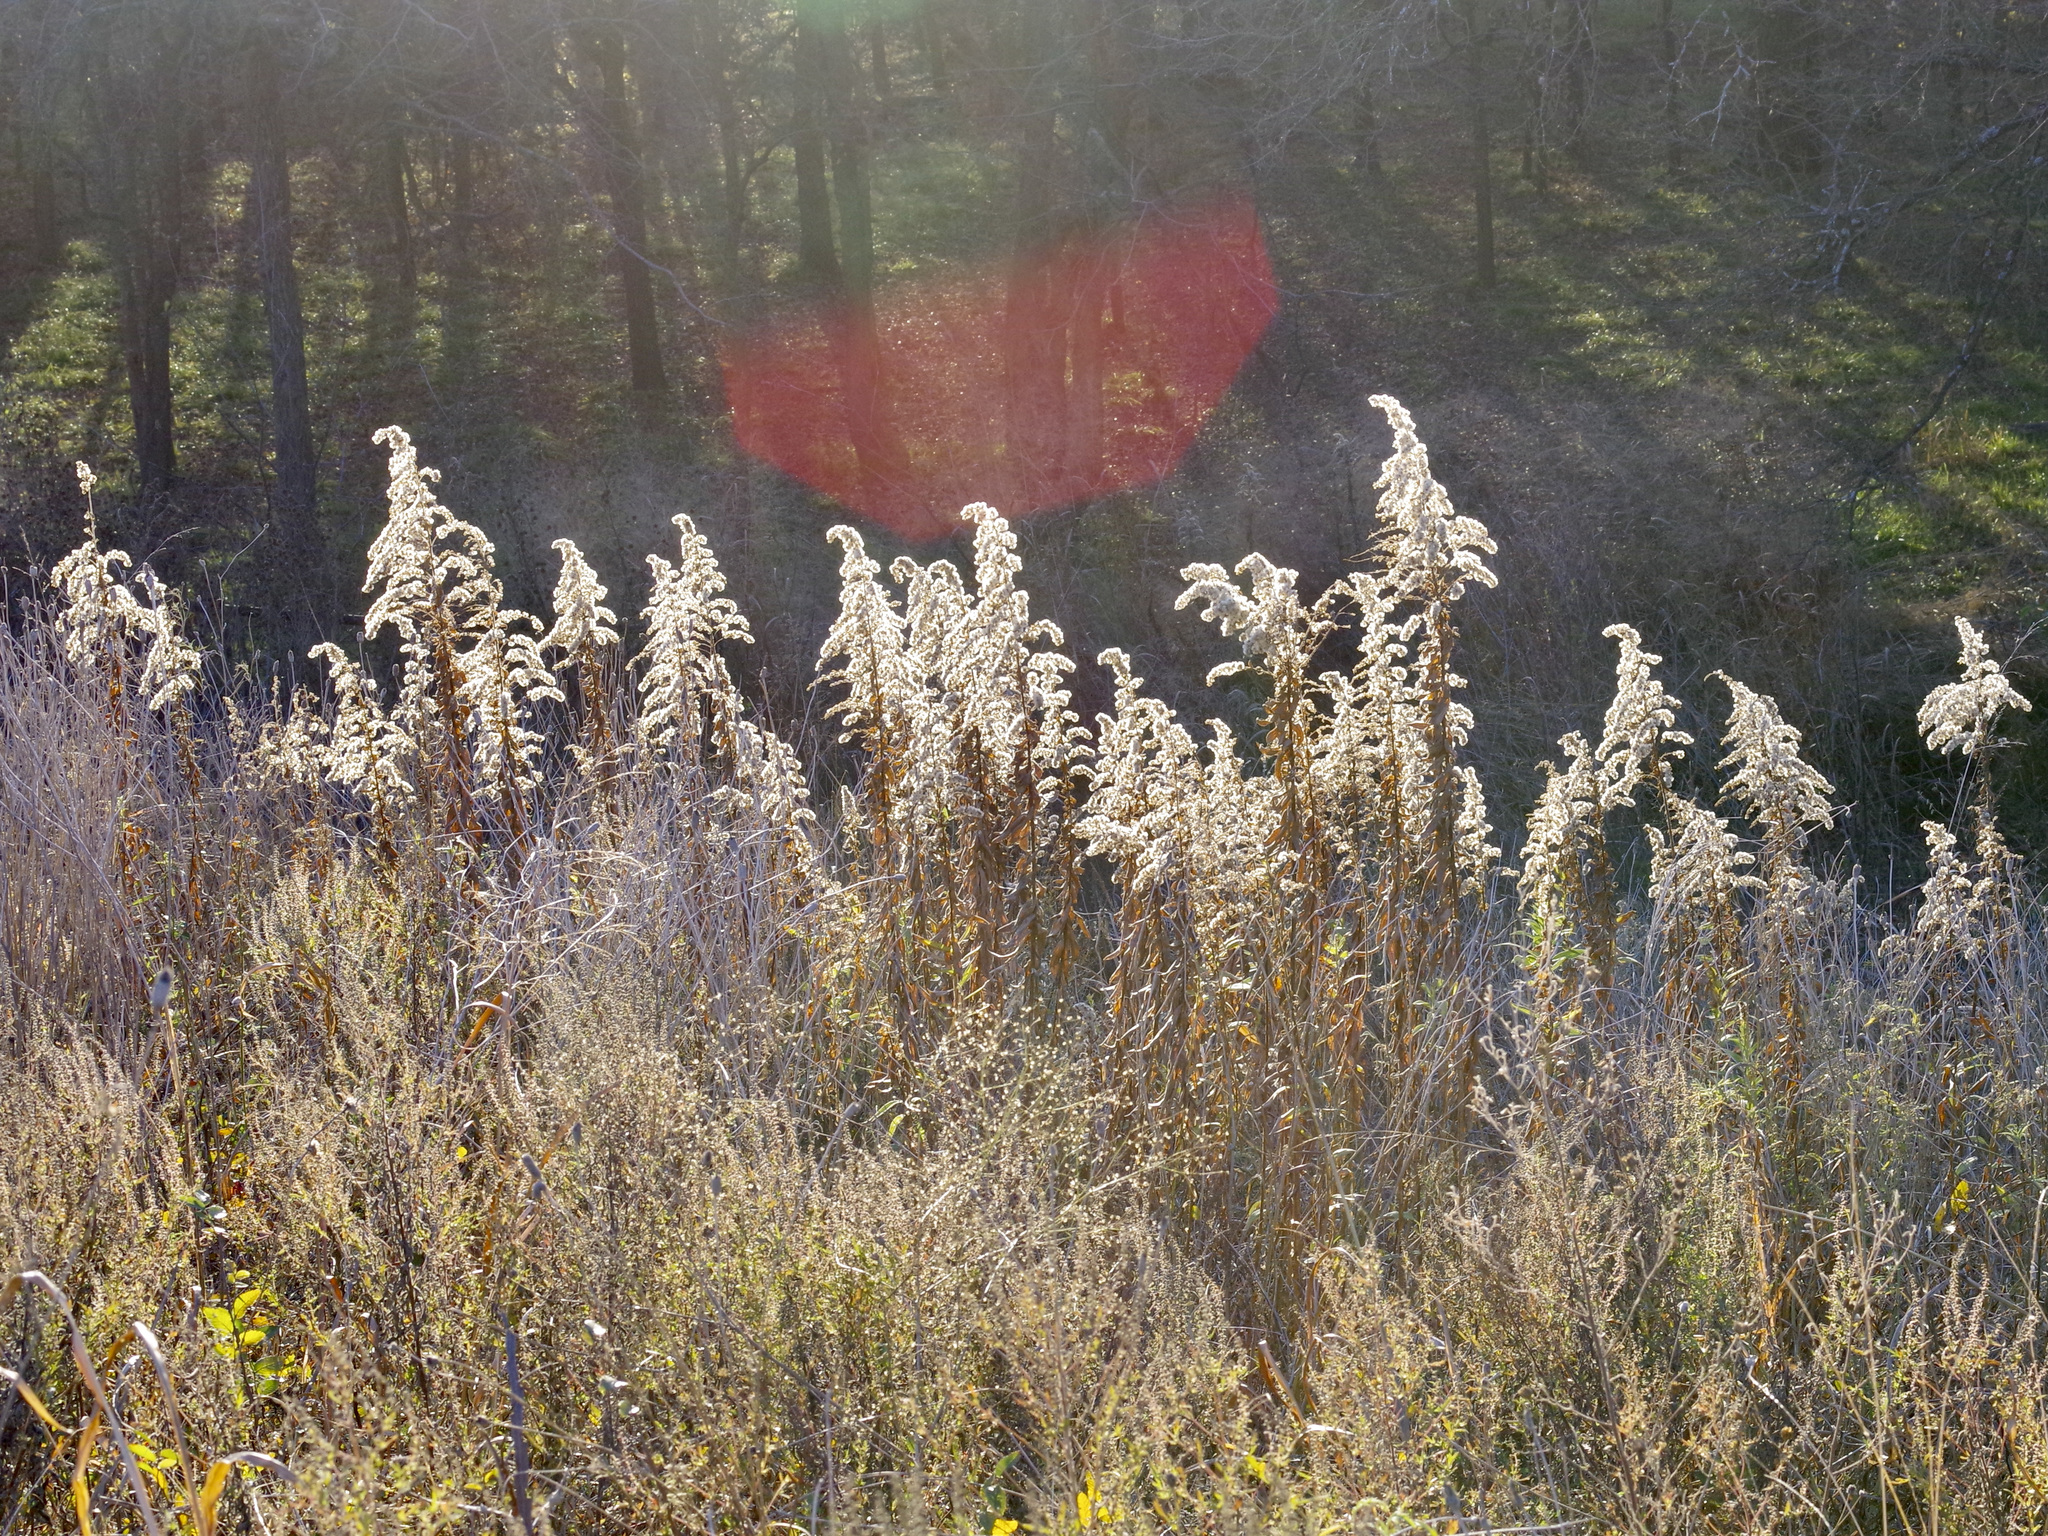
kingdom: Plantae
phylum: Tracheophyta
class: Magnoliopsida
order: Asterales
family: Asteraceae
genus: Solidago
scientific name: Solidago altissima
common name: Late goldenrod
